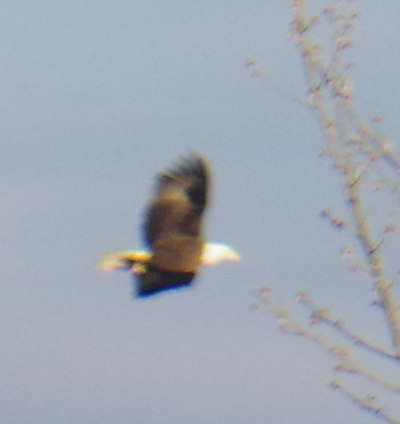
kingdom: Animalia
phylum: Chordata
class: Aves
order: Accipitriformes
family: Accipitridae
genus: Haliaeetus
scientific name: Haliaeetus leucocephalus
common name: Bald eagle
